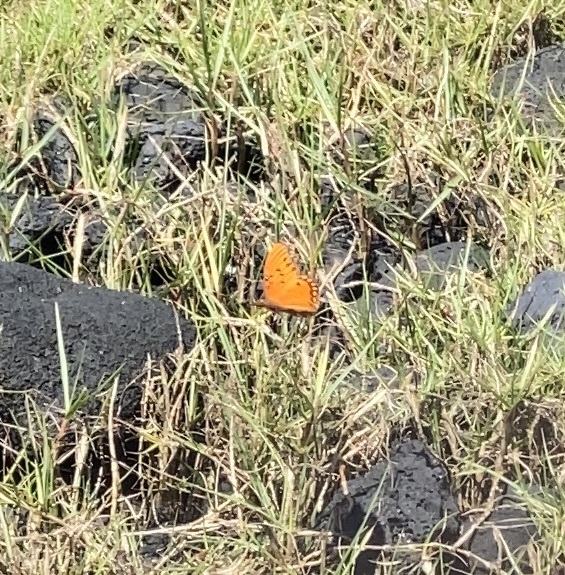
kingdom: Animalia
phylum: Arthropoda
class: Insecta
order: Lepidoptera
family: Nymphalidae
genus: Dione
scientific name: Dione vanillae
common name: Gulf fritillary
